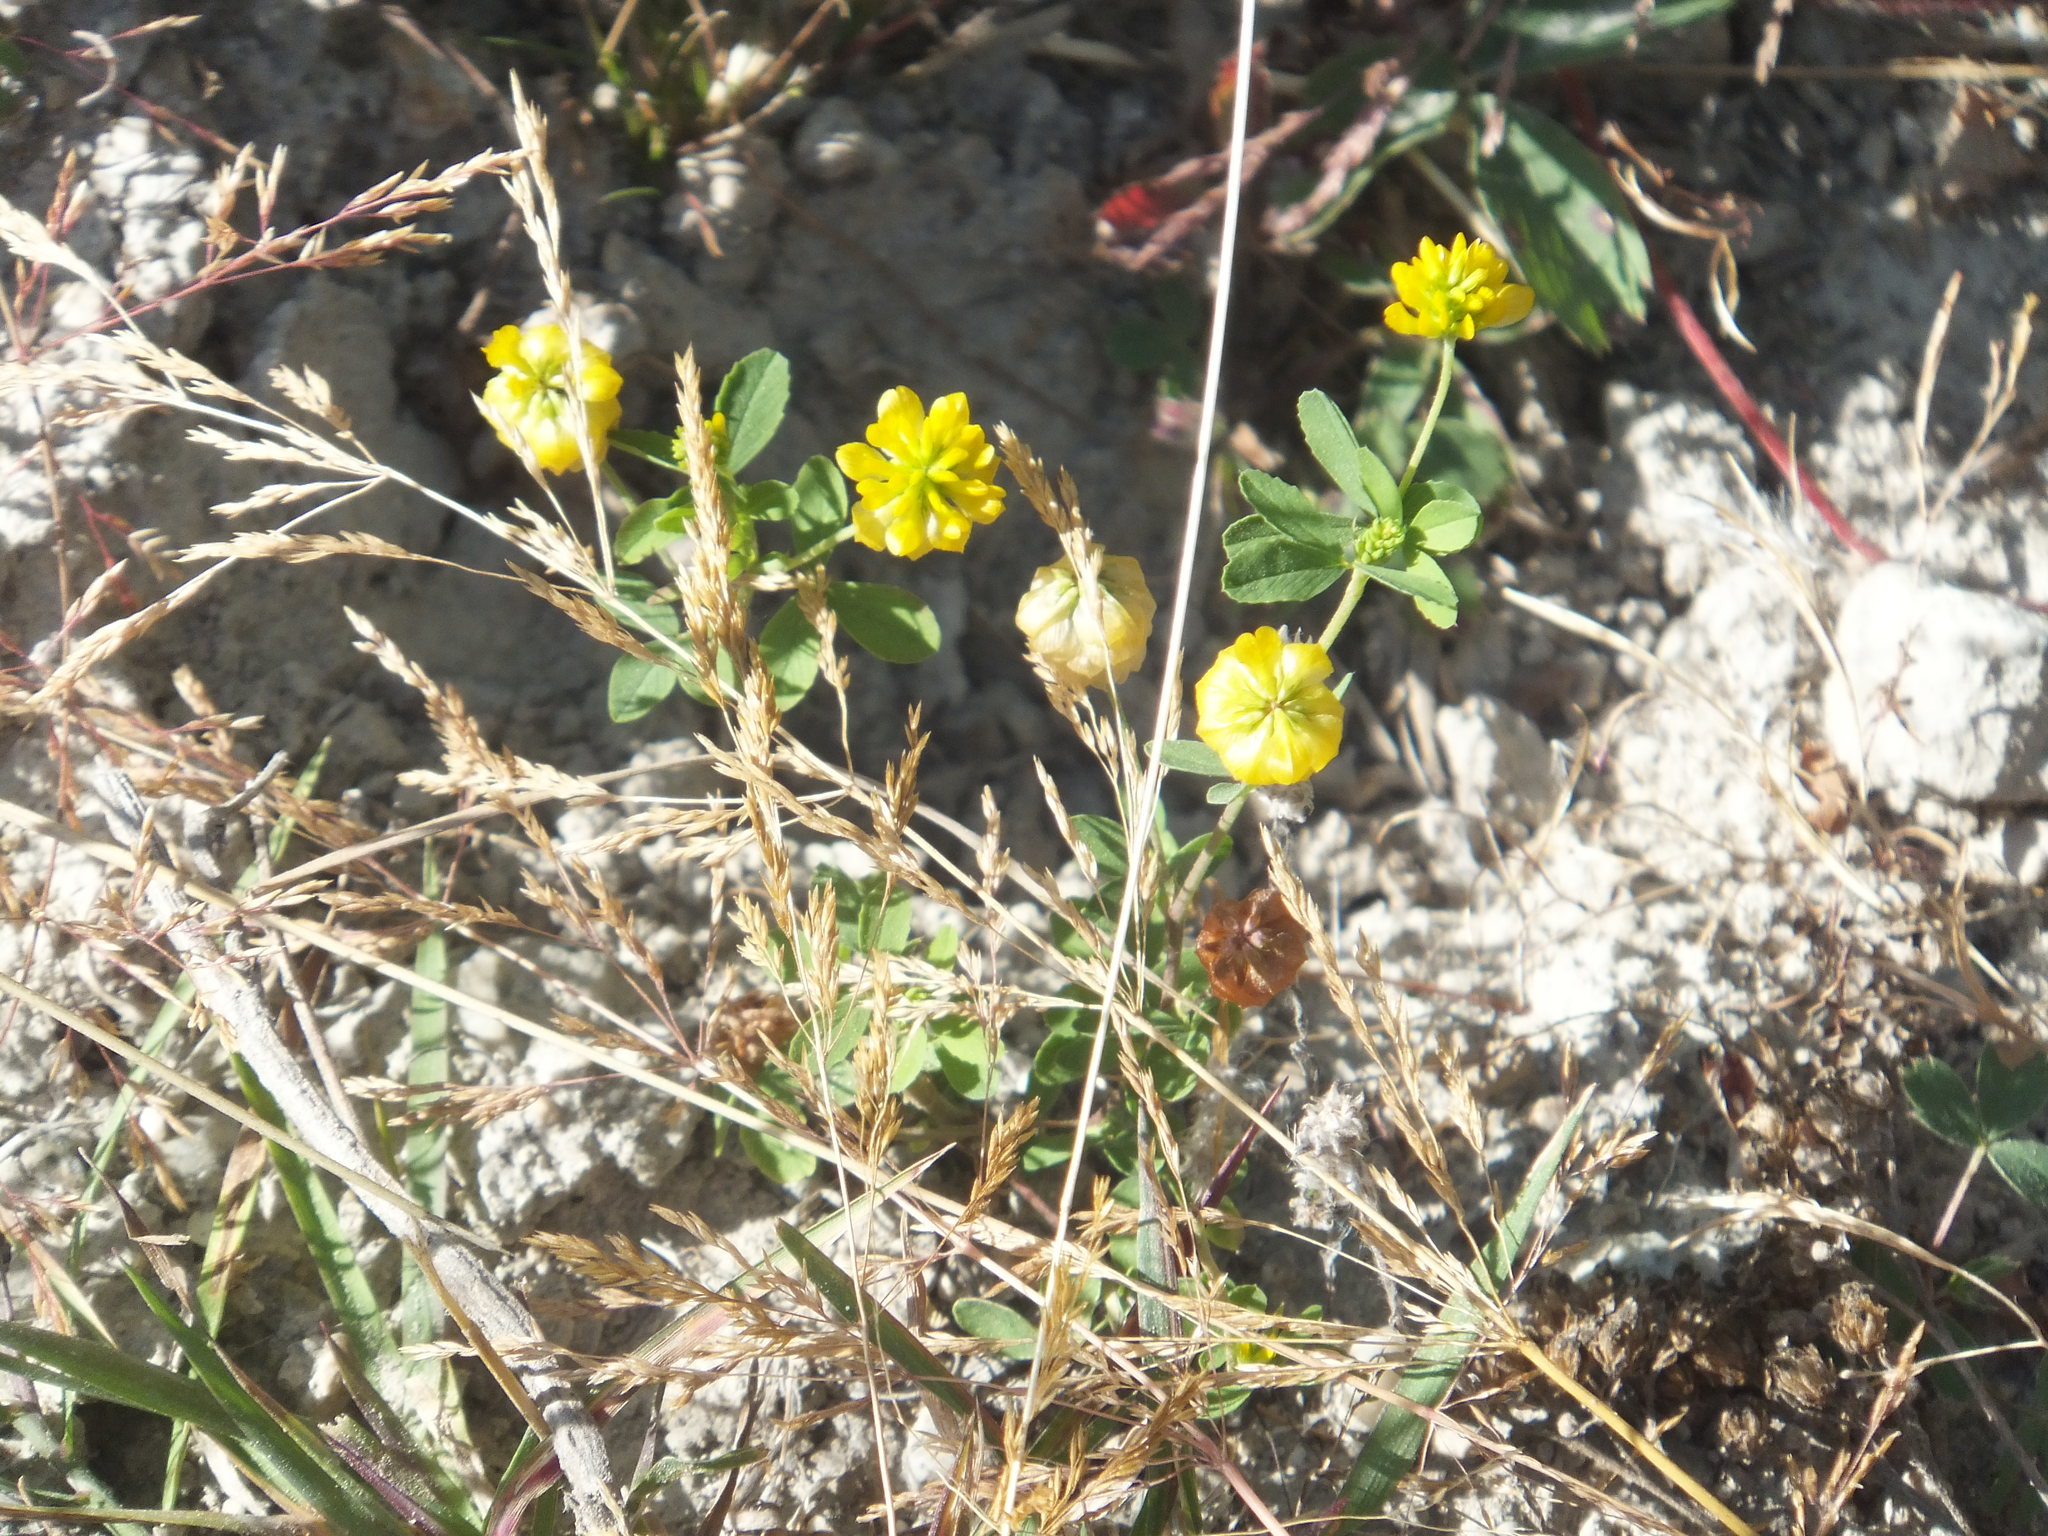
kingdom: Plantae
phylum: Tracheophyta
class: Magnoliopsida
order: Fabales
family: Fabaceae
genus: Trifolium
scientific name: Trifolium aureum
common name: Golden clover
